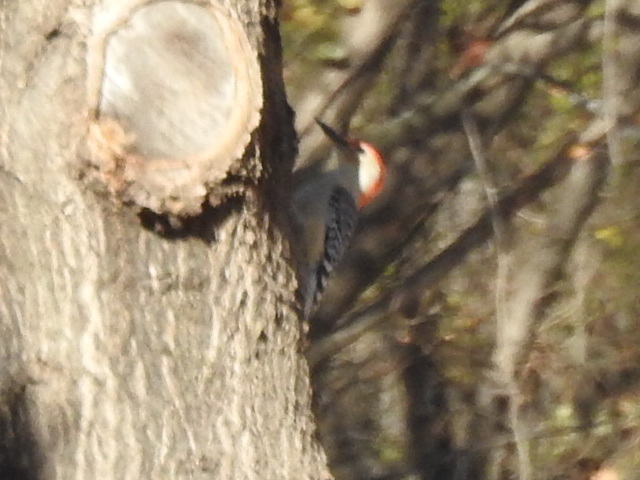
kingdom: Animalia
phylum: Chordata
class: Aves
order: Piciformes
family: Picidae
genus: Melanerpes
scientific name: Melanerpes carolinus
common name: Red-bellied woodpecker
